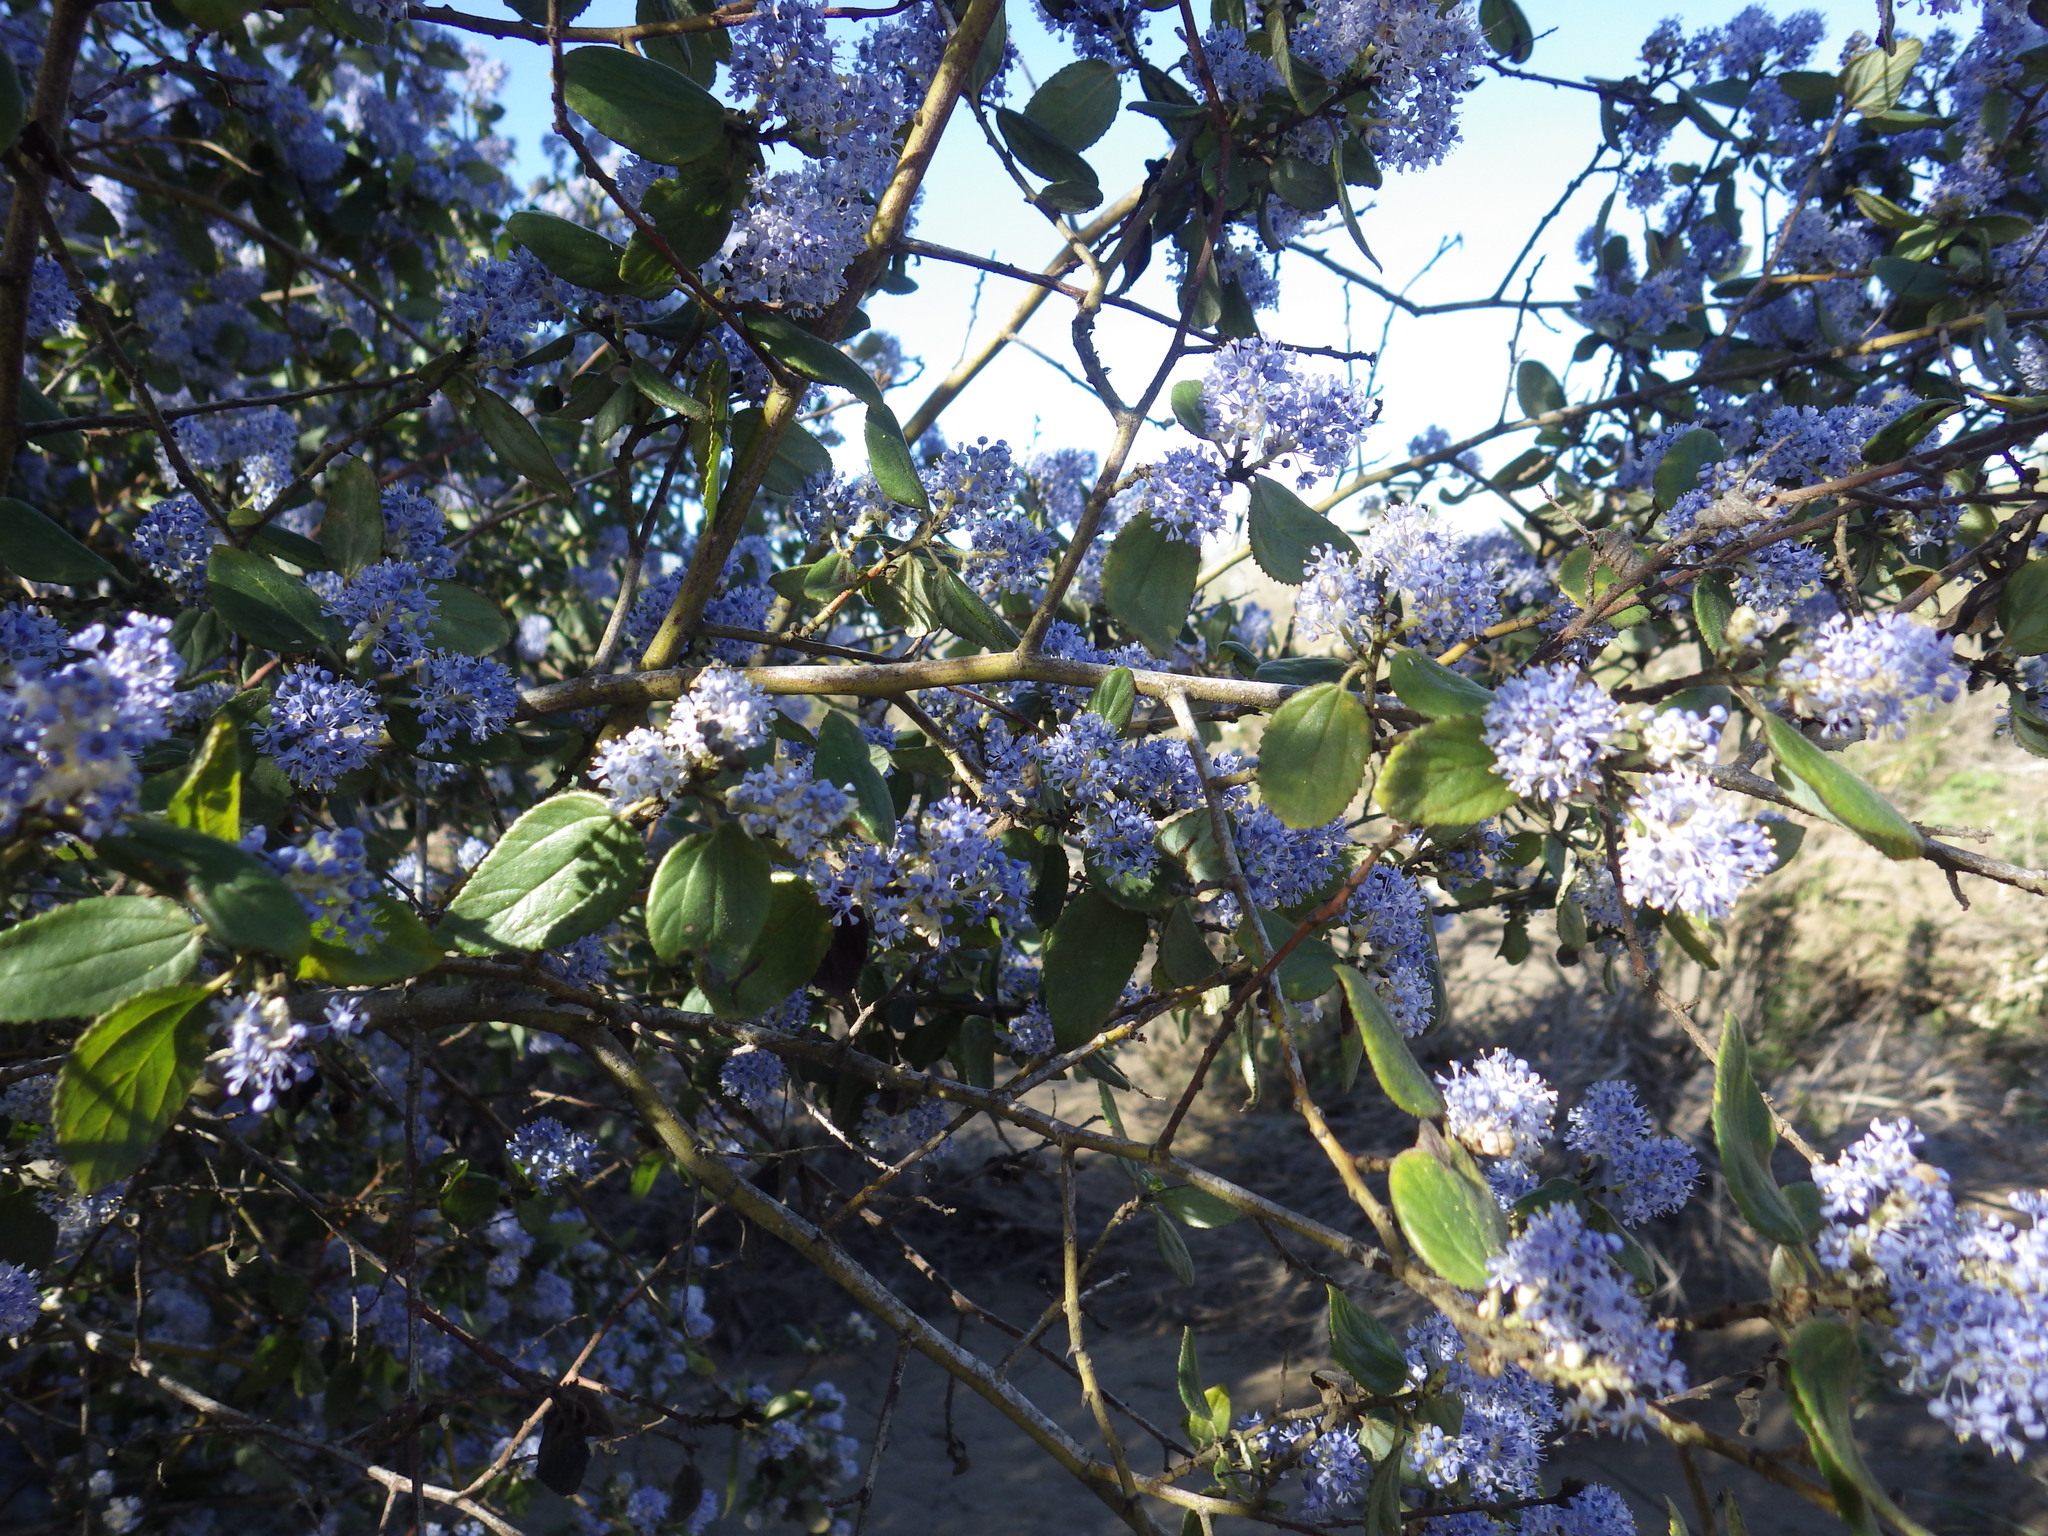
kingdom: Plantae
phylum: Tracheophyta
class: Magnoliopsida
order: Rosales
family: Rhamnaceae
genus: Ceanothus
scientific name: Ceanothus oliganthus
